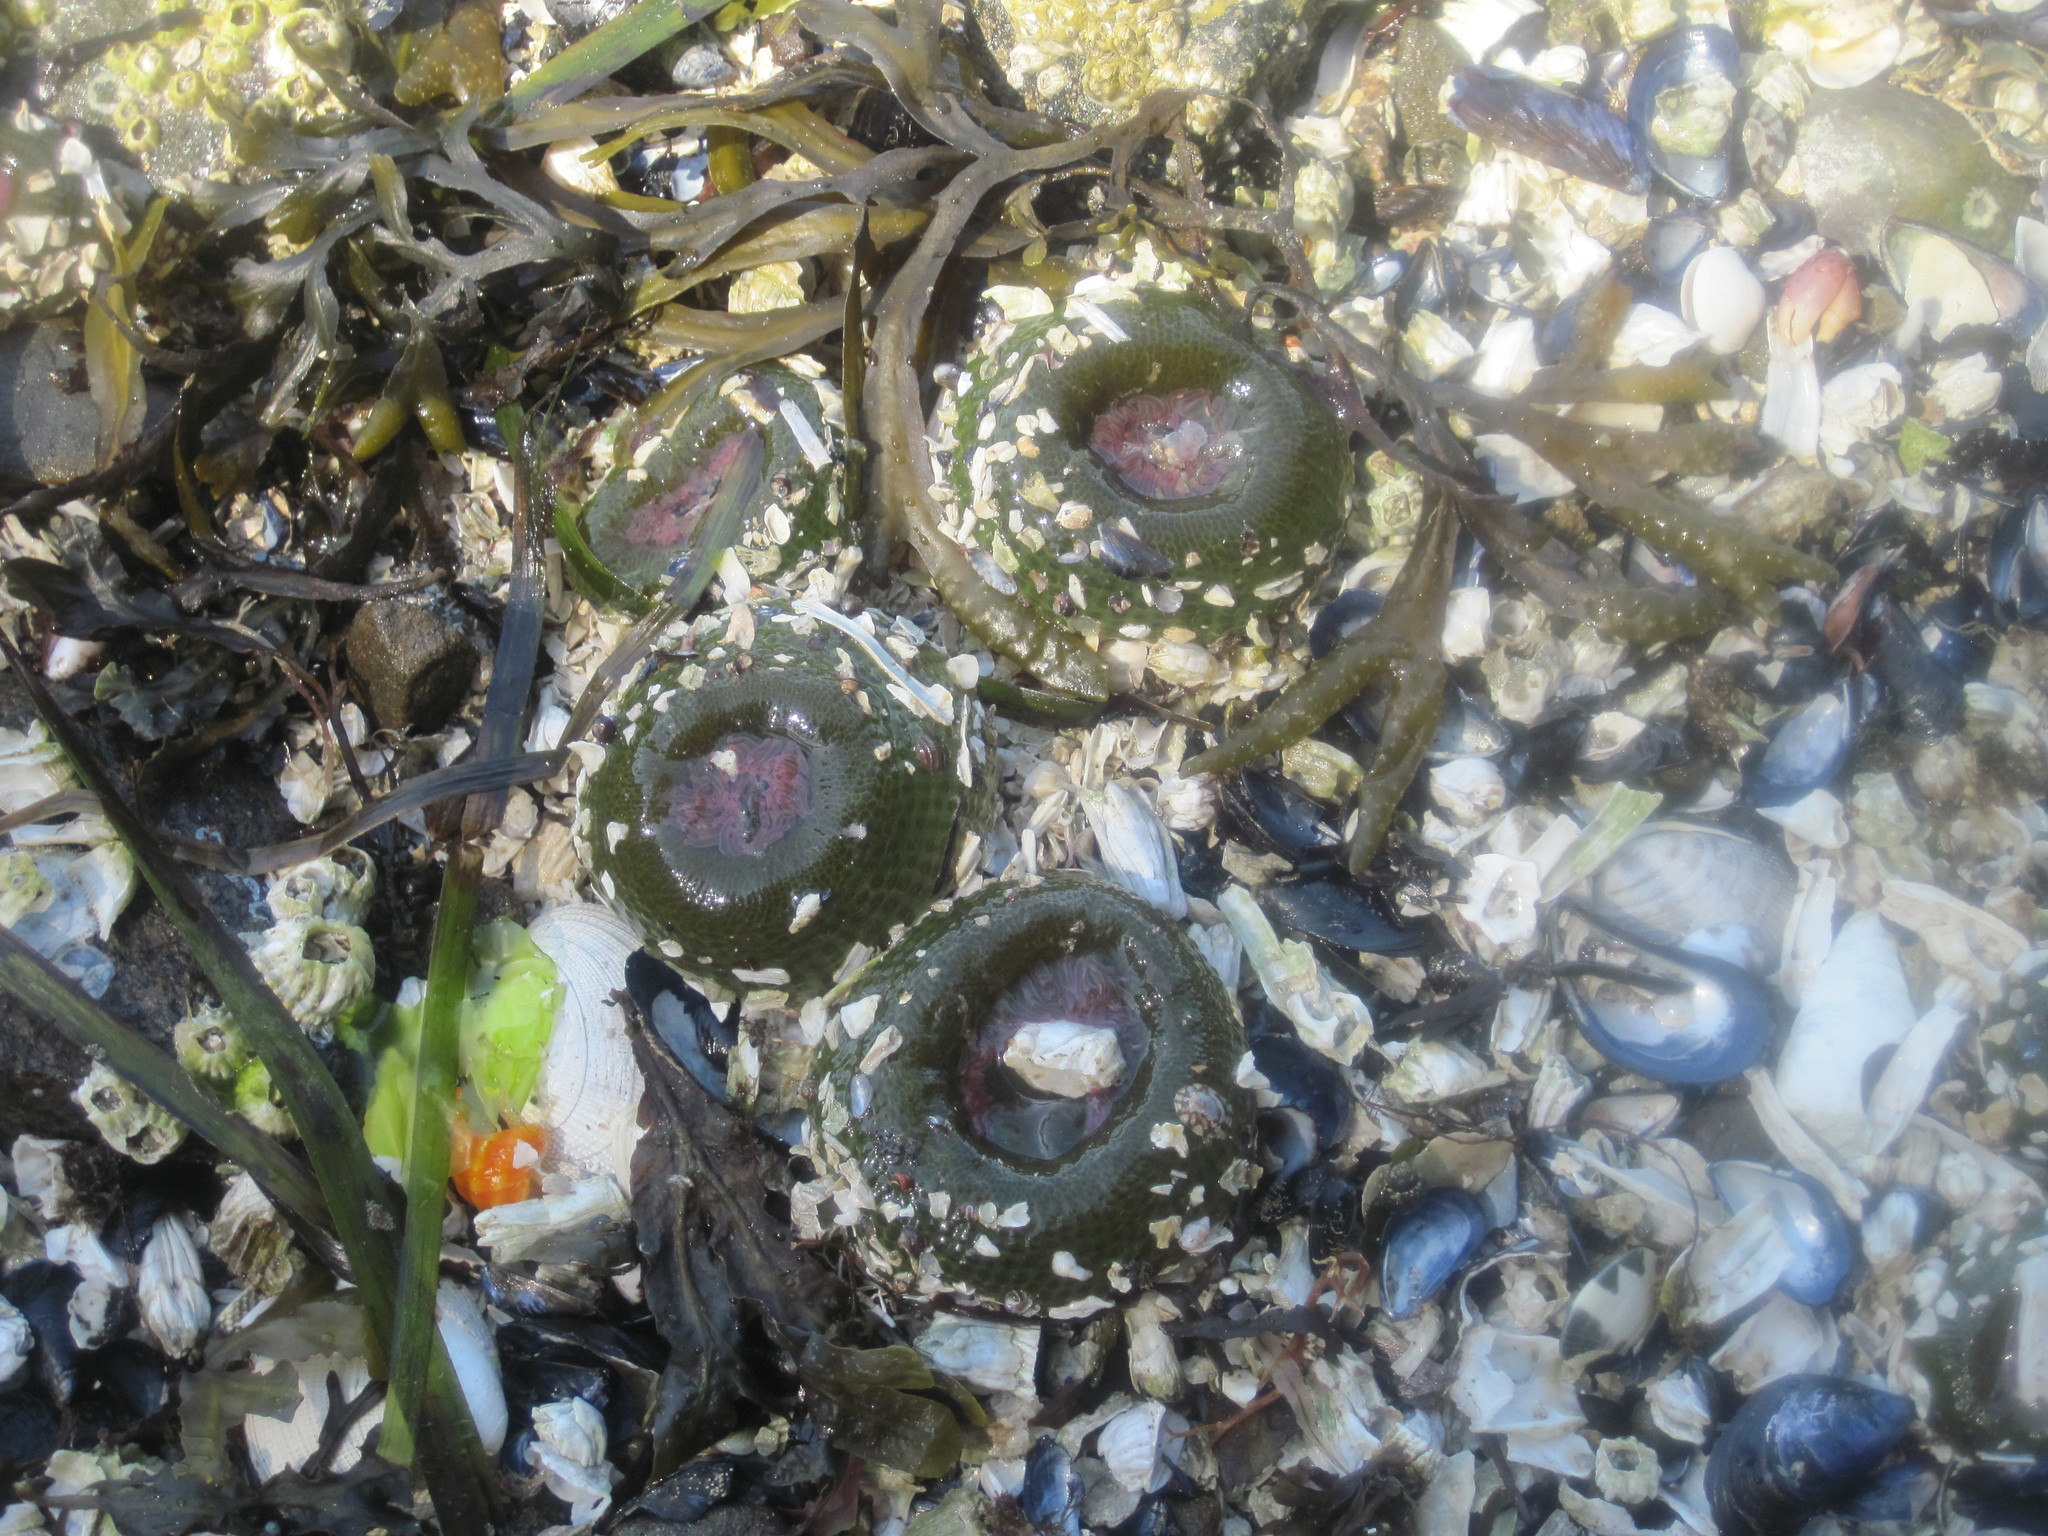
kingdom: Animalia
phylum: Cnidaria
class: Anthozoa
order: Actiniaria
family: Actiniidae
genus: Anthopleura
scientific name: Anthopleura elegantissima
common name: Clonal anemone
